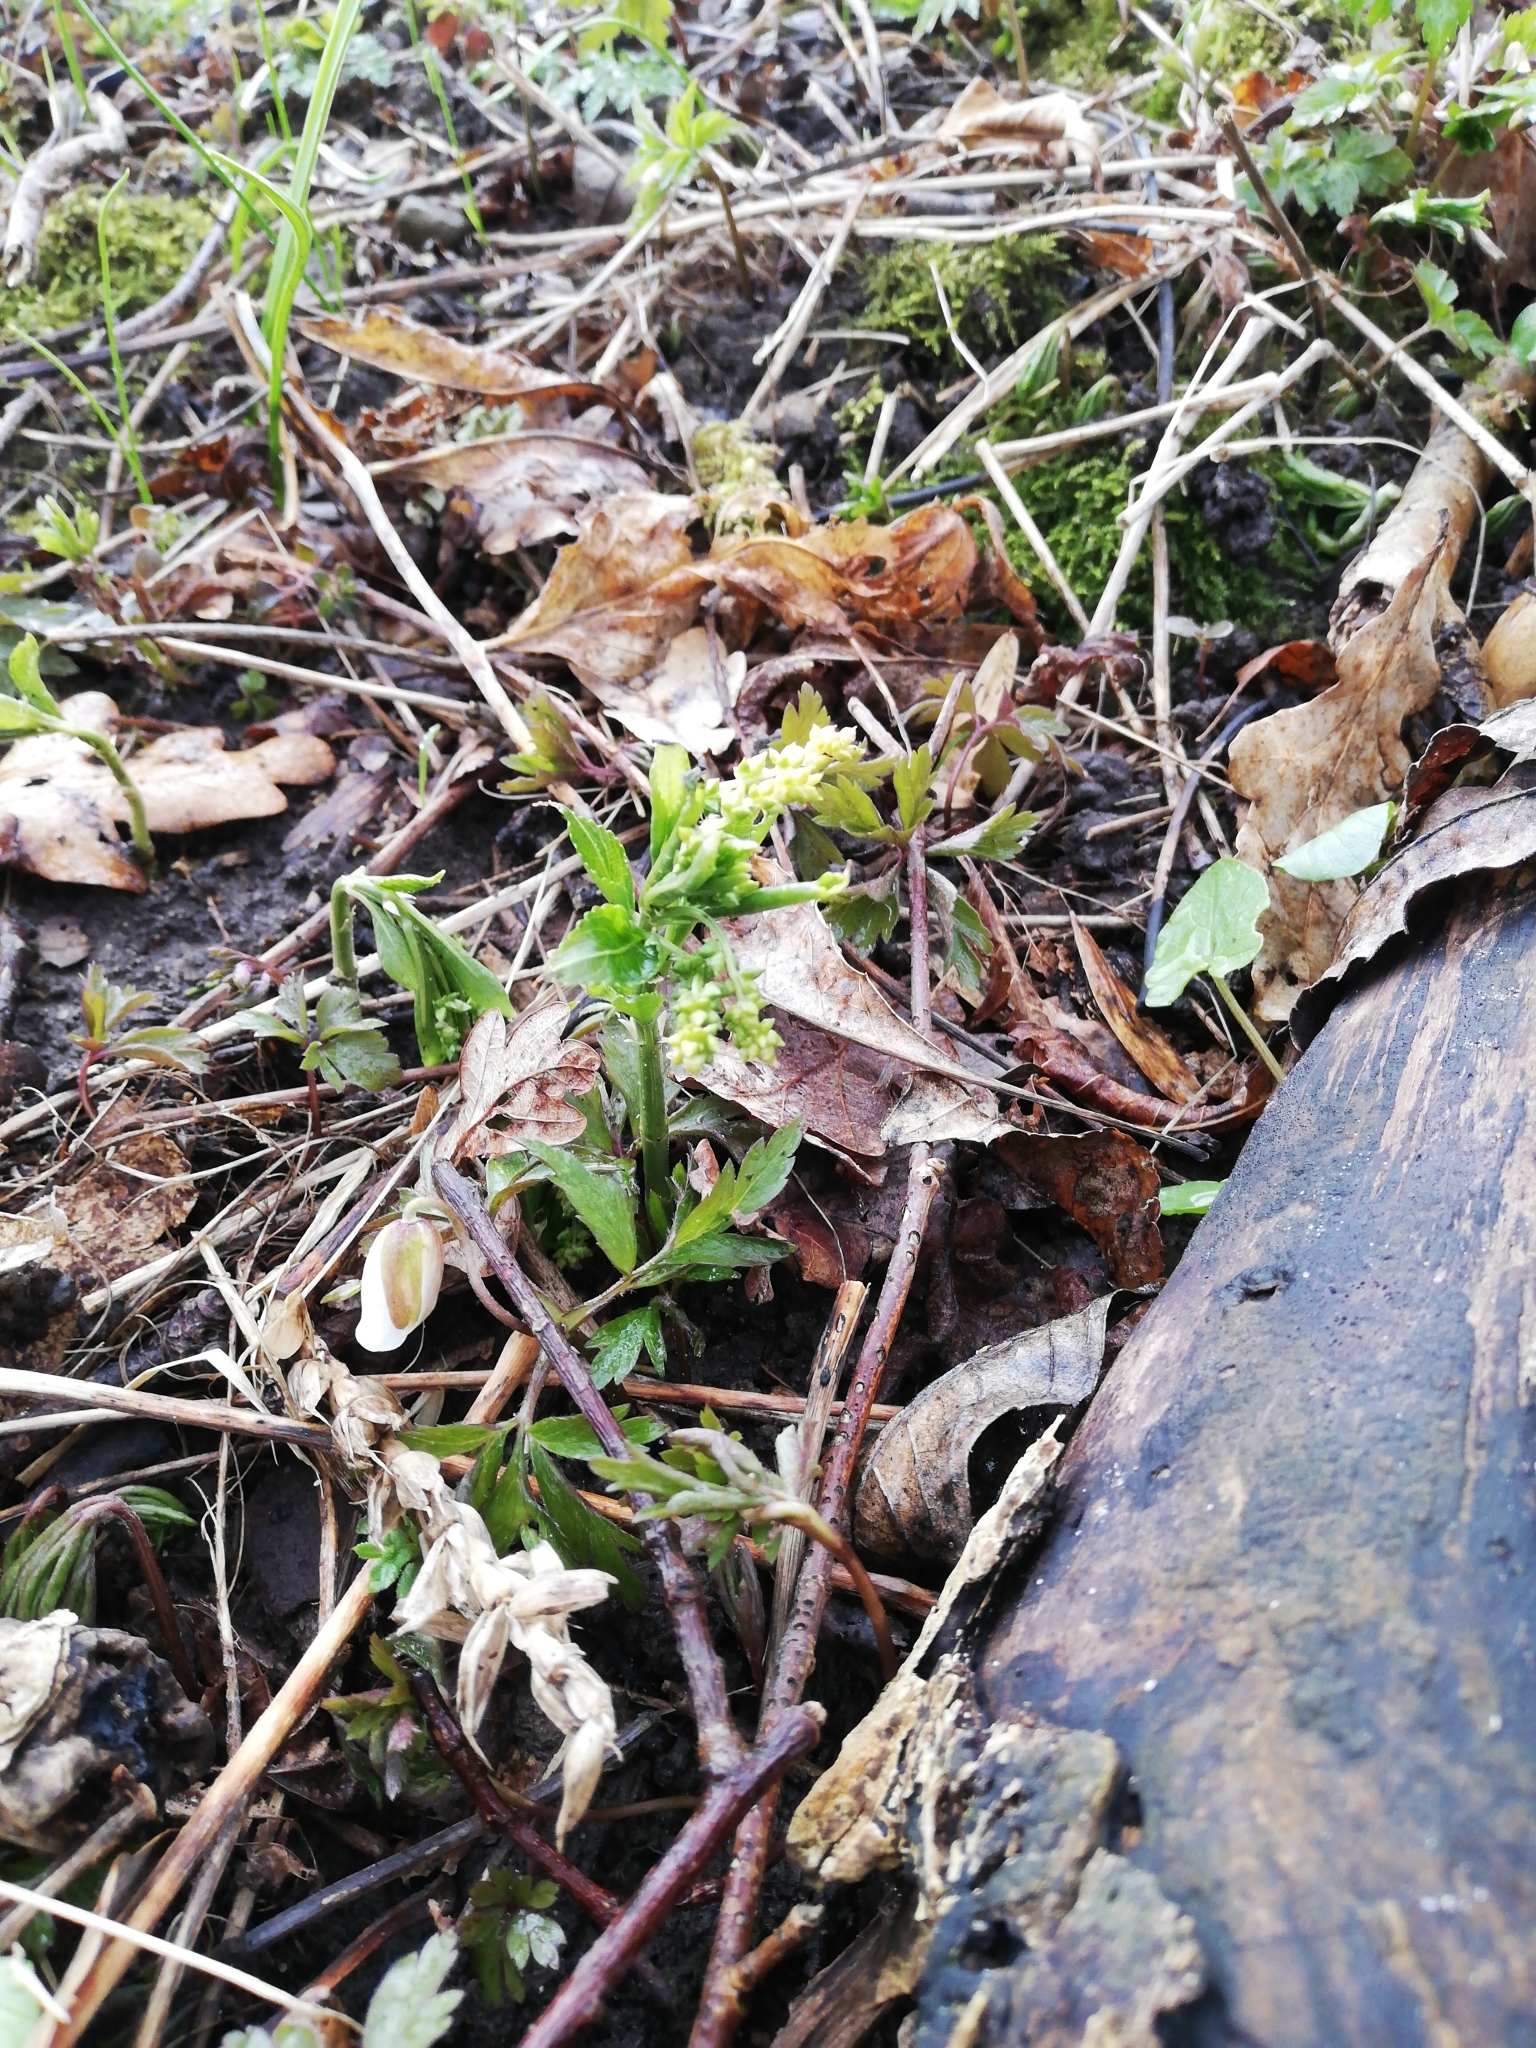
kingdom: Plantae
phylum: Tracheophyta
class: Magnoliopsida
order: Malpighiales
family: Euphorbiaceae
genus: Mercurialis
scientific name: Mercurialis perennis
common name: Dog mercury
